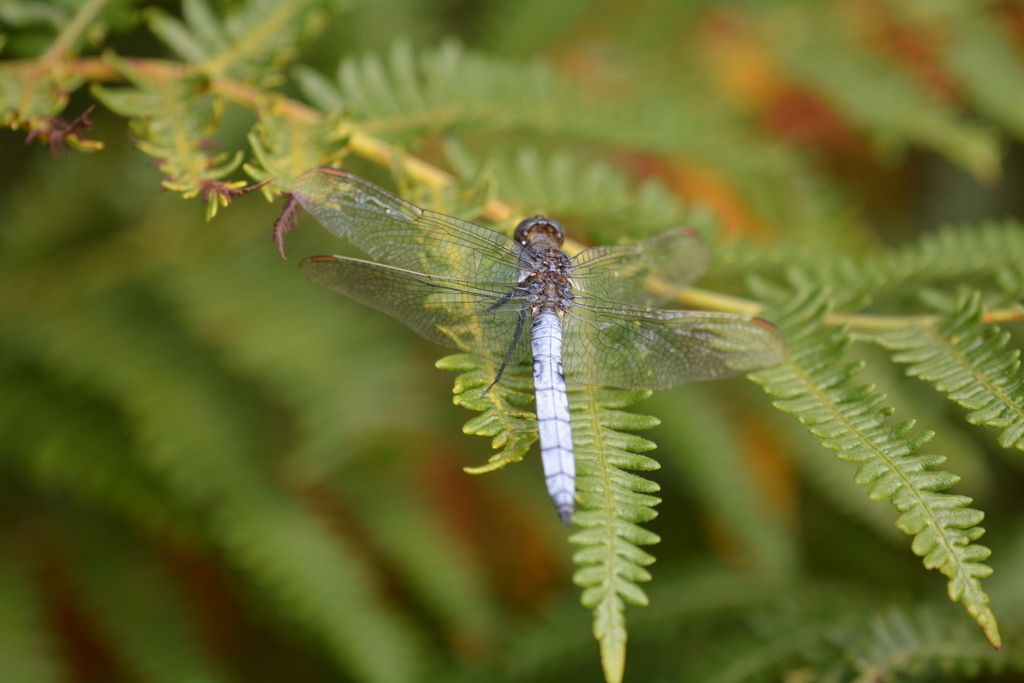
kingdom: Animalia
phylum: Arthropoda
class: Insecta
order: Odonata
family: Libellulidae
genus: Orthetrum
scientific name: Orthetrum coerulescens
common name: Keeled skimmer
